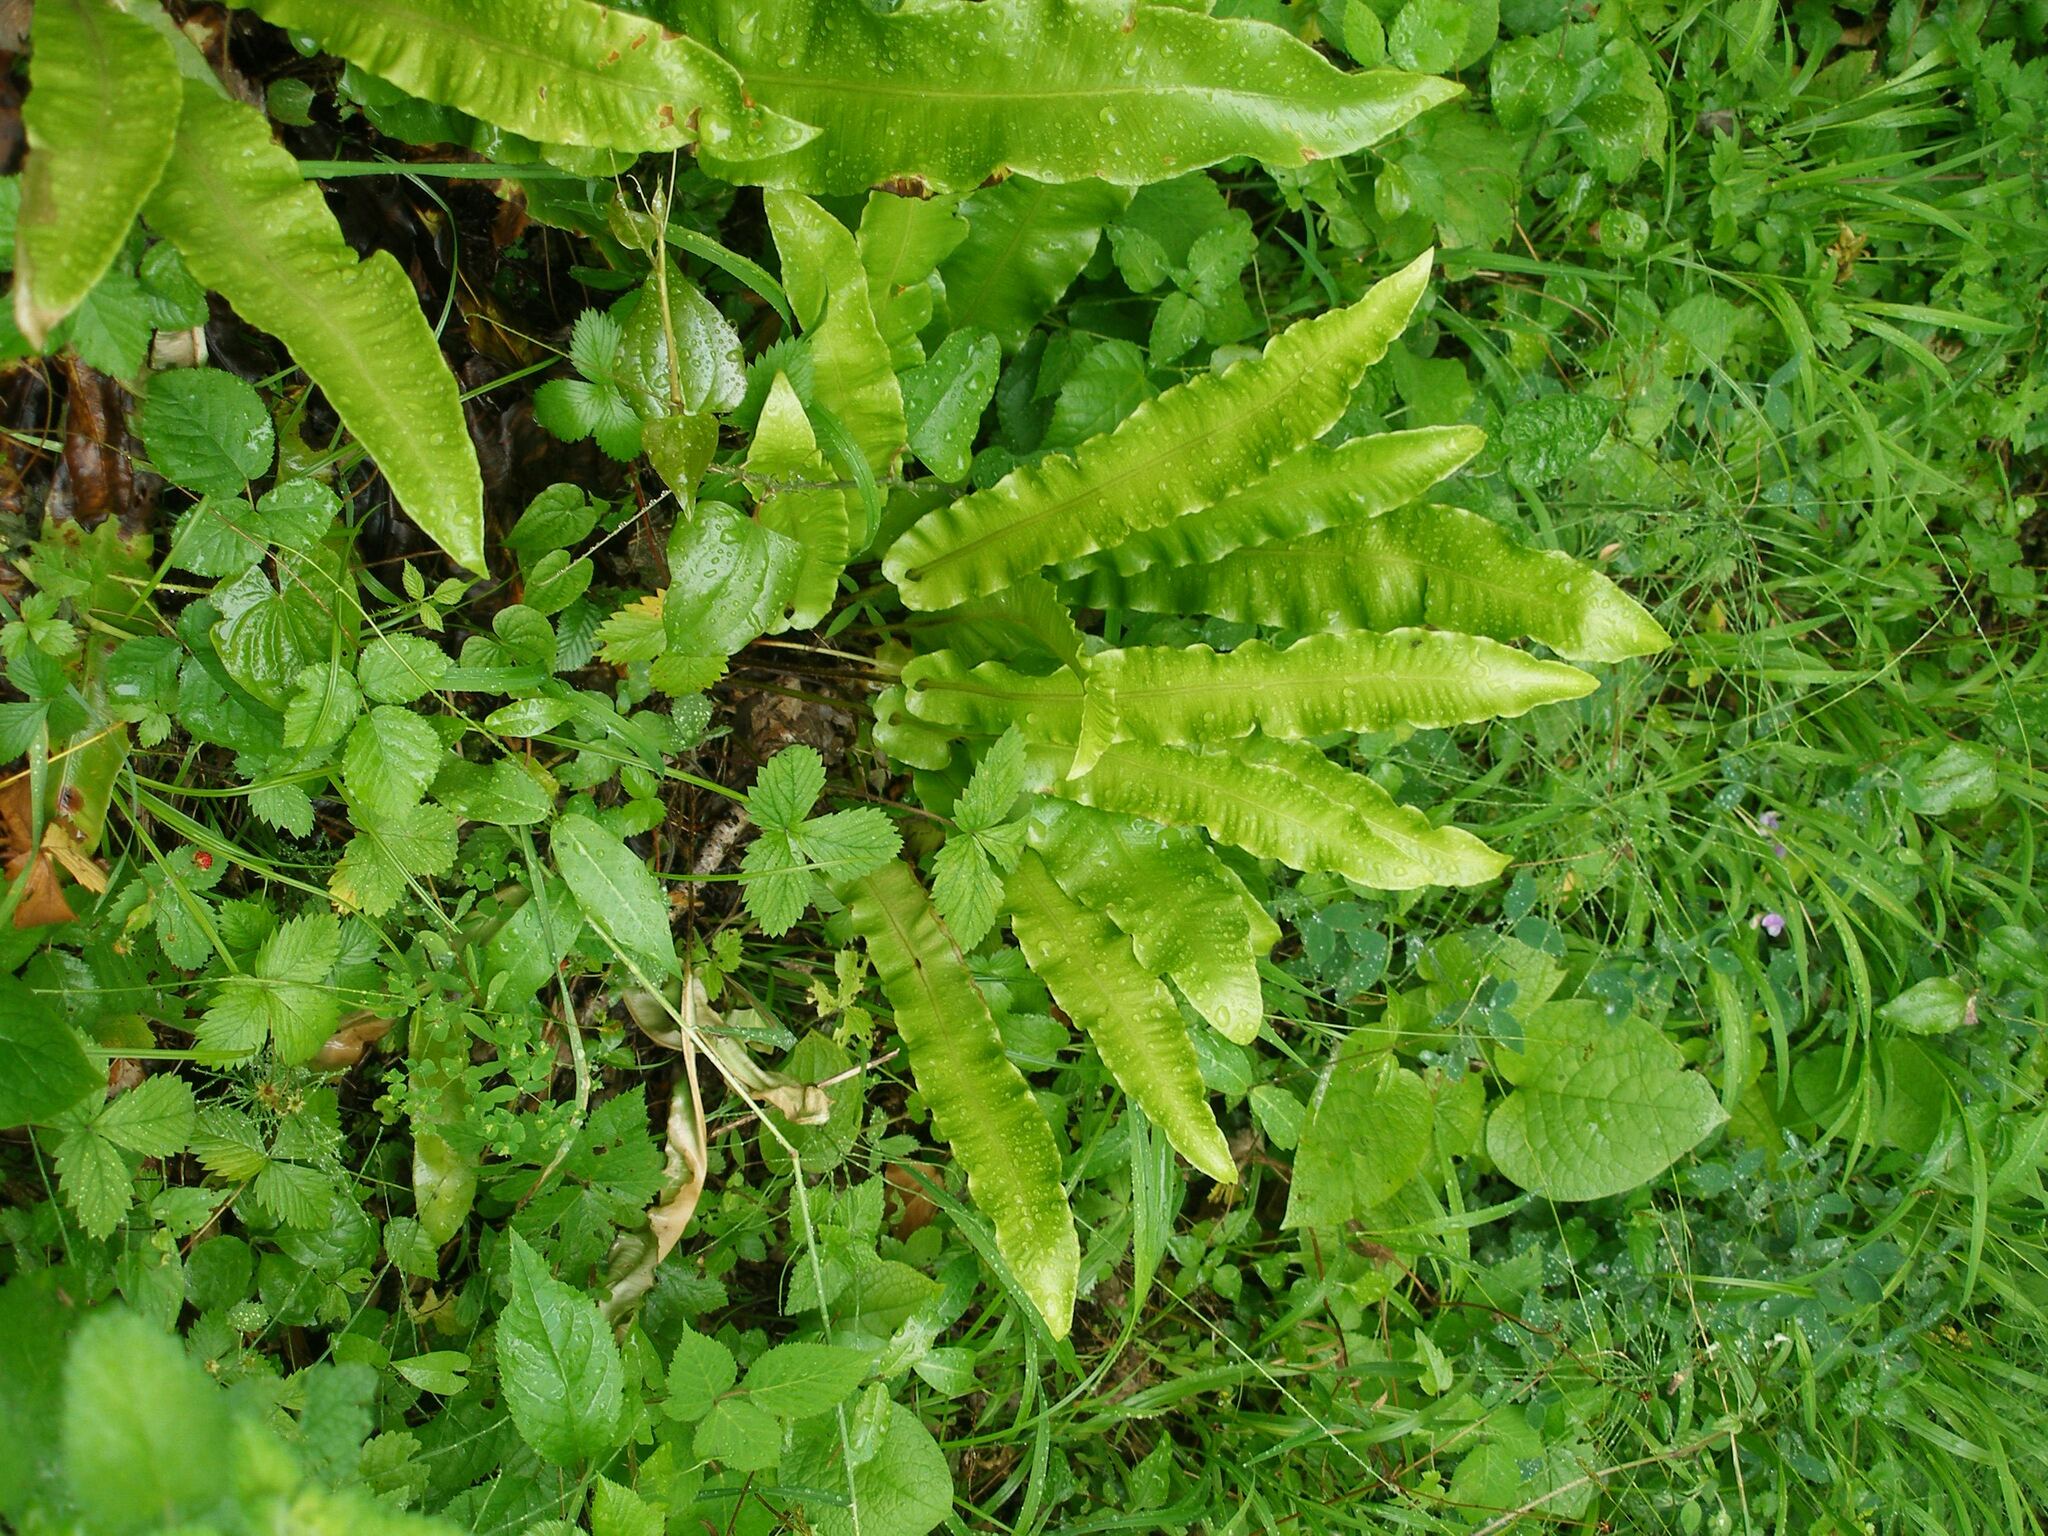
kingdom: Plantae
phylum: Tracheophyta
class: Polypodiopsida
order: Polypodiales
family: Aspleniaceae
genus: Asplenium
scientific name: Asplenium scolopendrium
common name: Hart's-tongue fern
